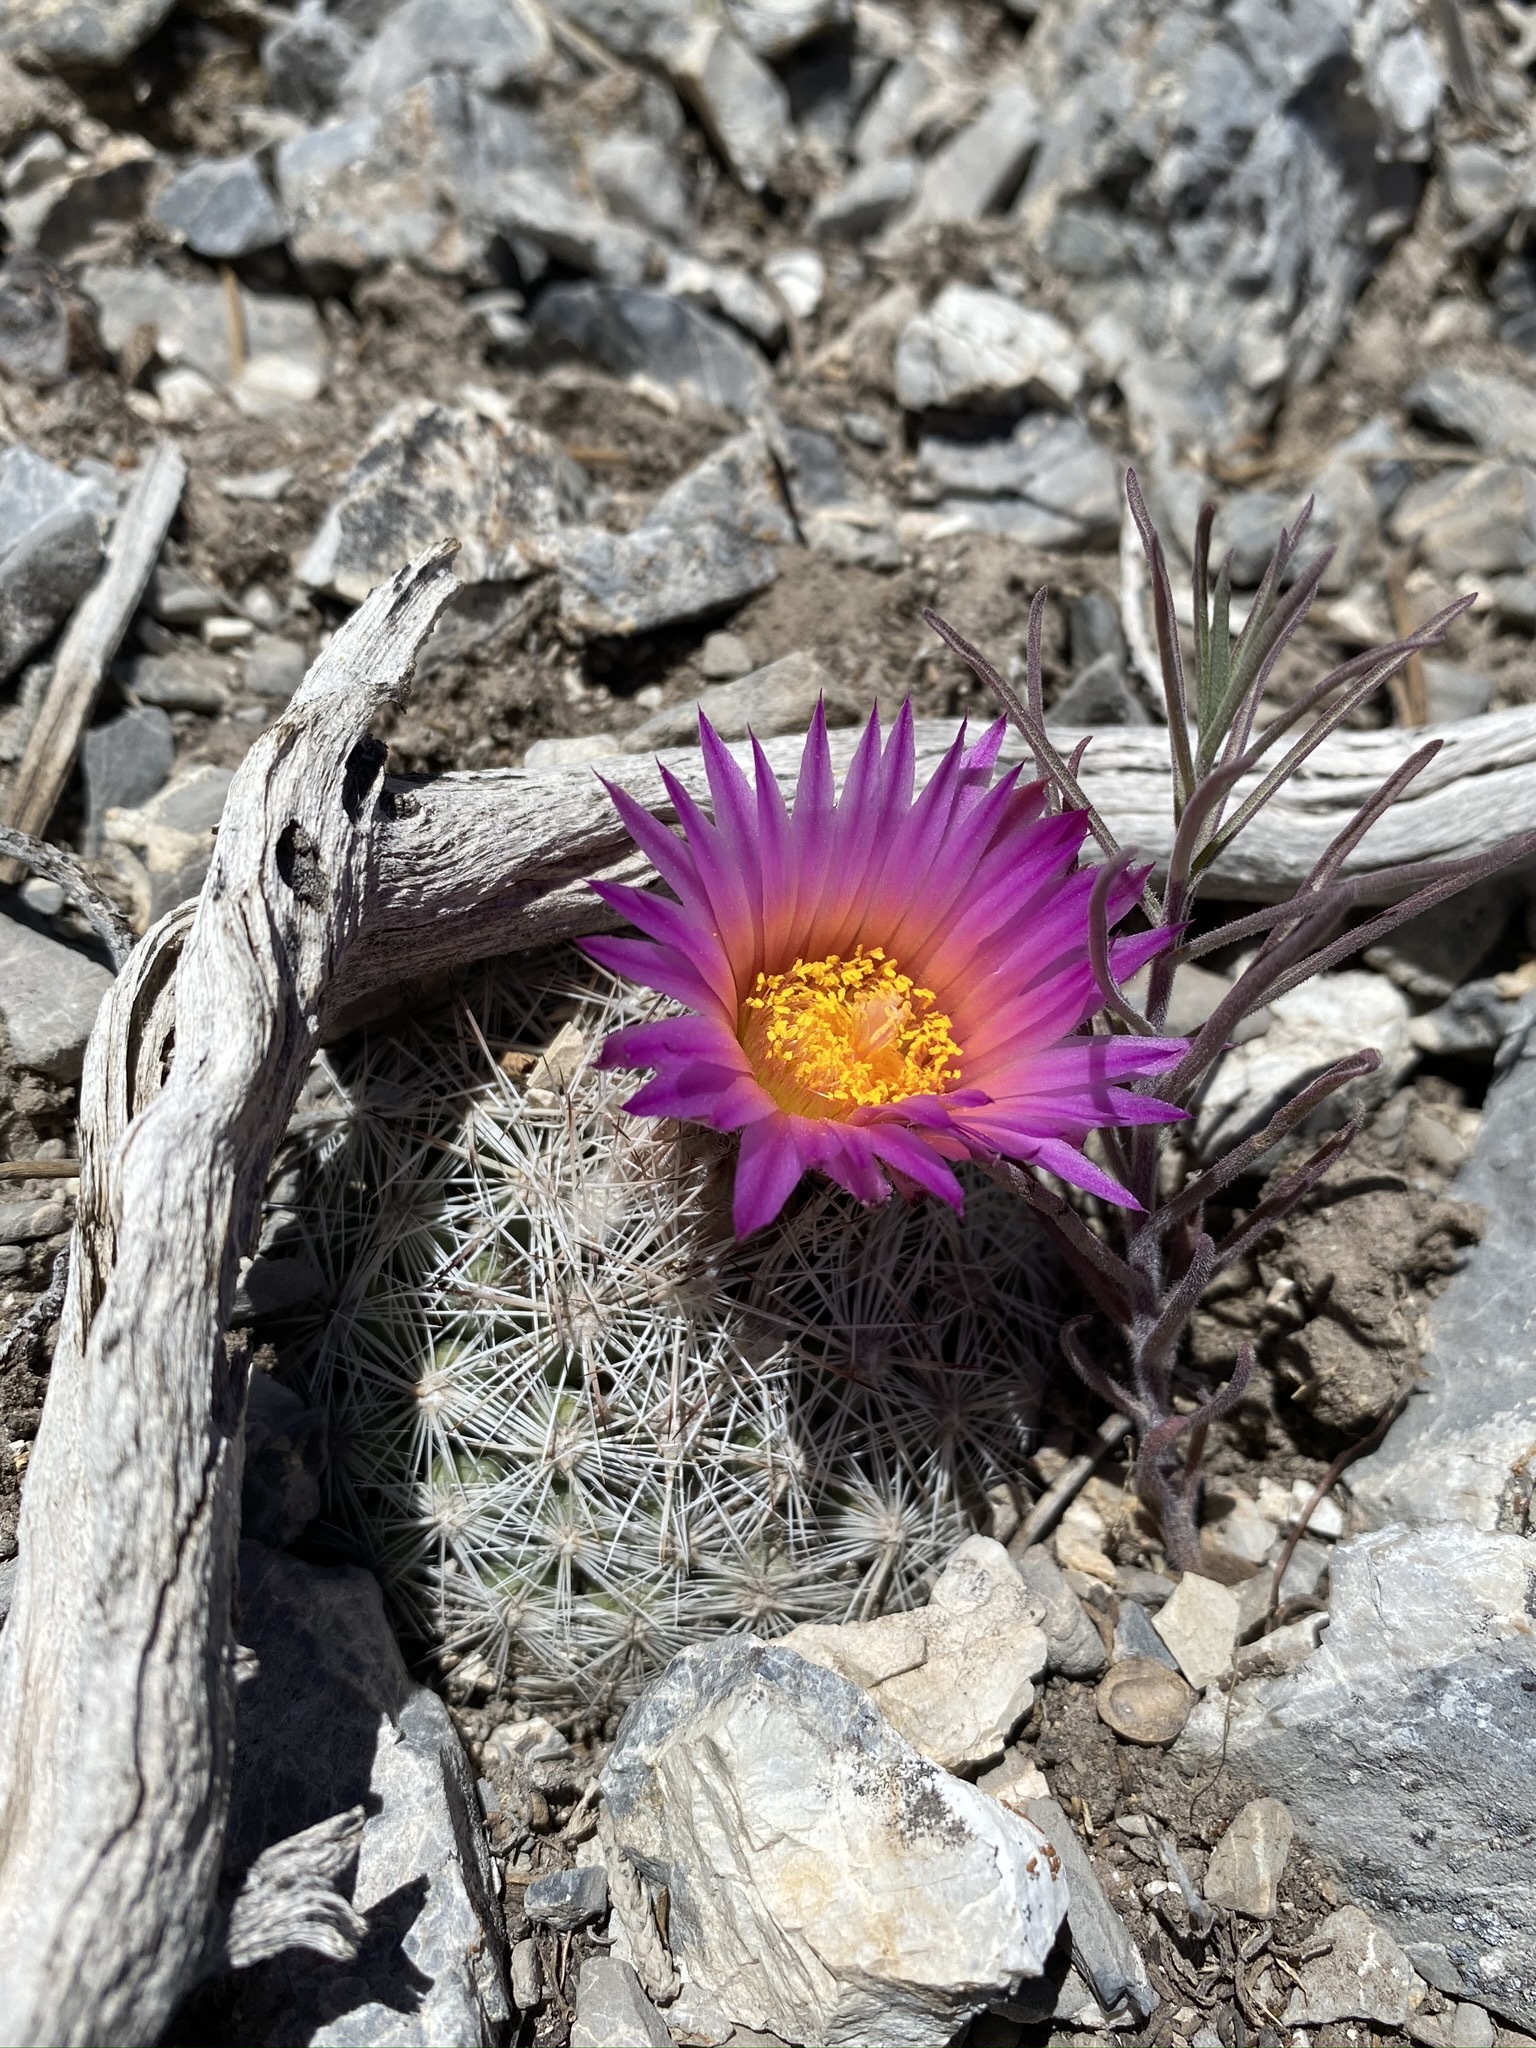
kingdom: Plantae
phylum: Tracheophyta
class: Magnoliopsida
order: Caryophyllales
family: Cactaceae
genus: Pelecyphora
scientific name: Pelecyphora vivipara
